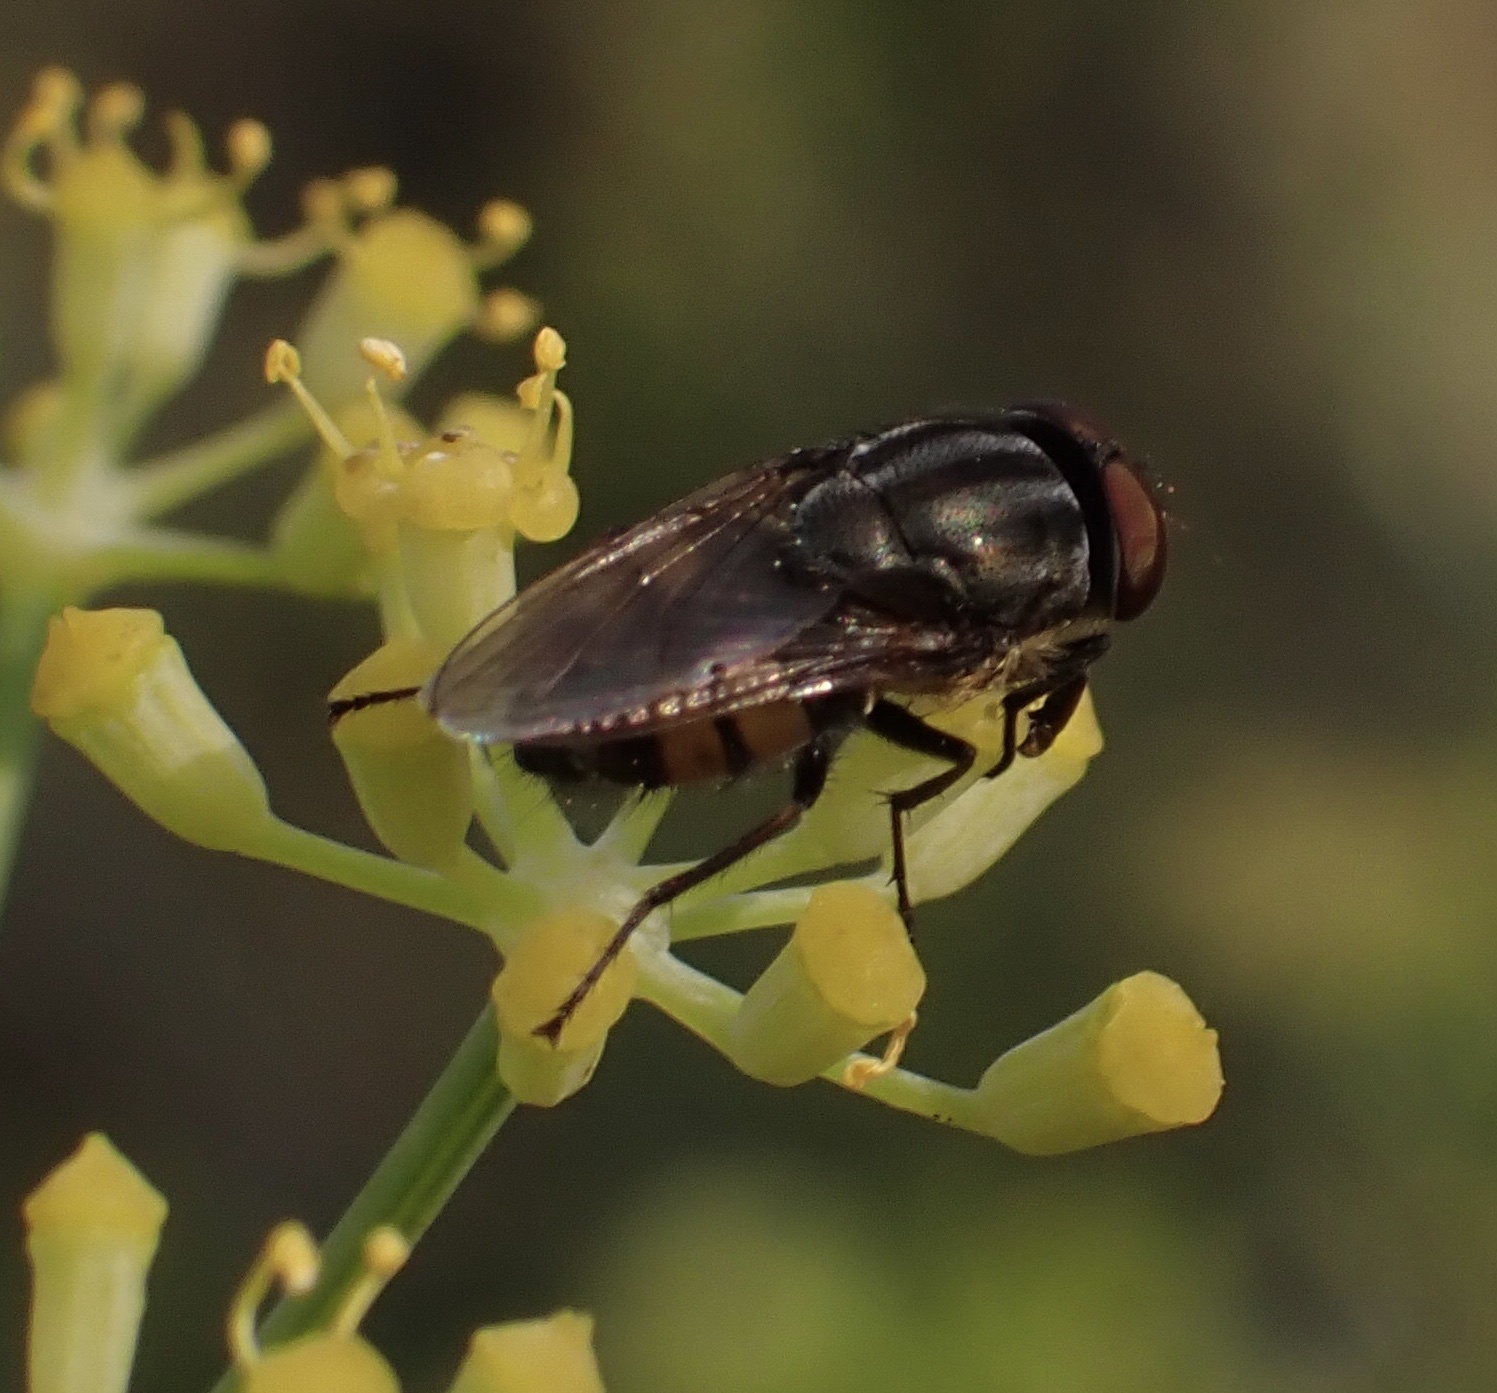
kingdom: Animalia
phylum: Arthropoda
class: Insecta
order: Diptera
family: Calliphoridae
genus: Stomorhina
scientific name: Stomorhina lunata
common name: Locust blowfly
